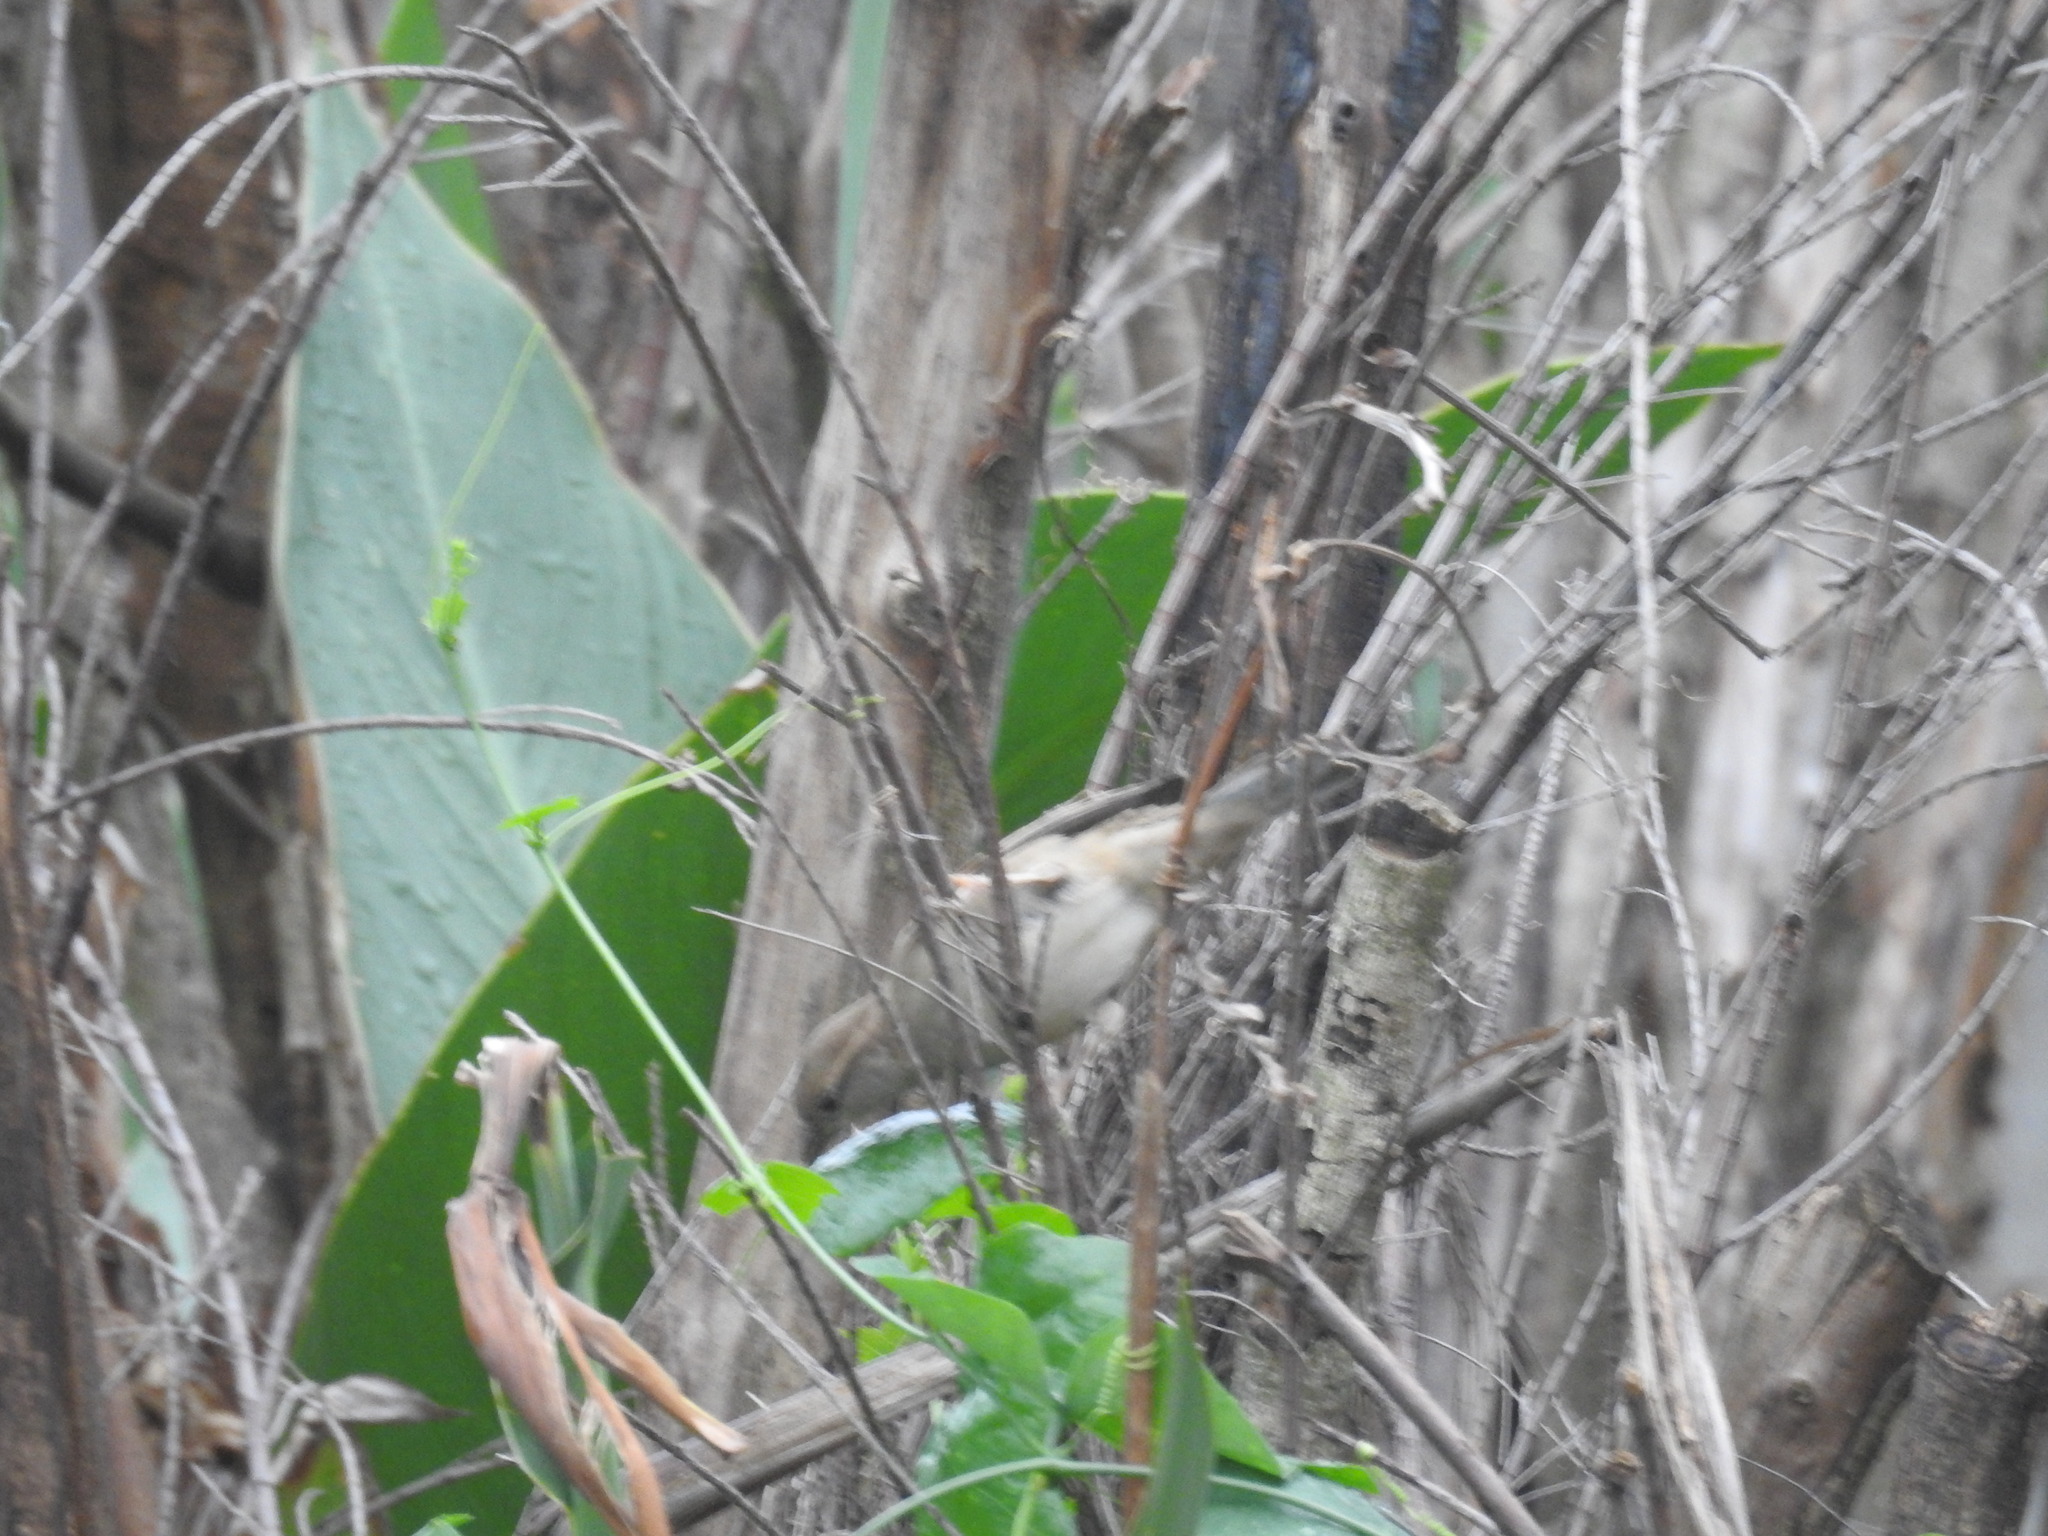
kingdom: Animalia
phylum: Chordata
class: Aves
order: Passeriformes
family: Passeridae
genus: Passer
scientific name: Passer domesticus
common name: House sparrow
